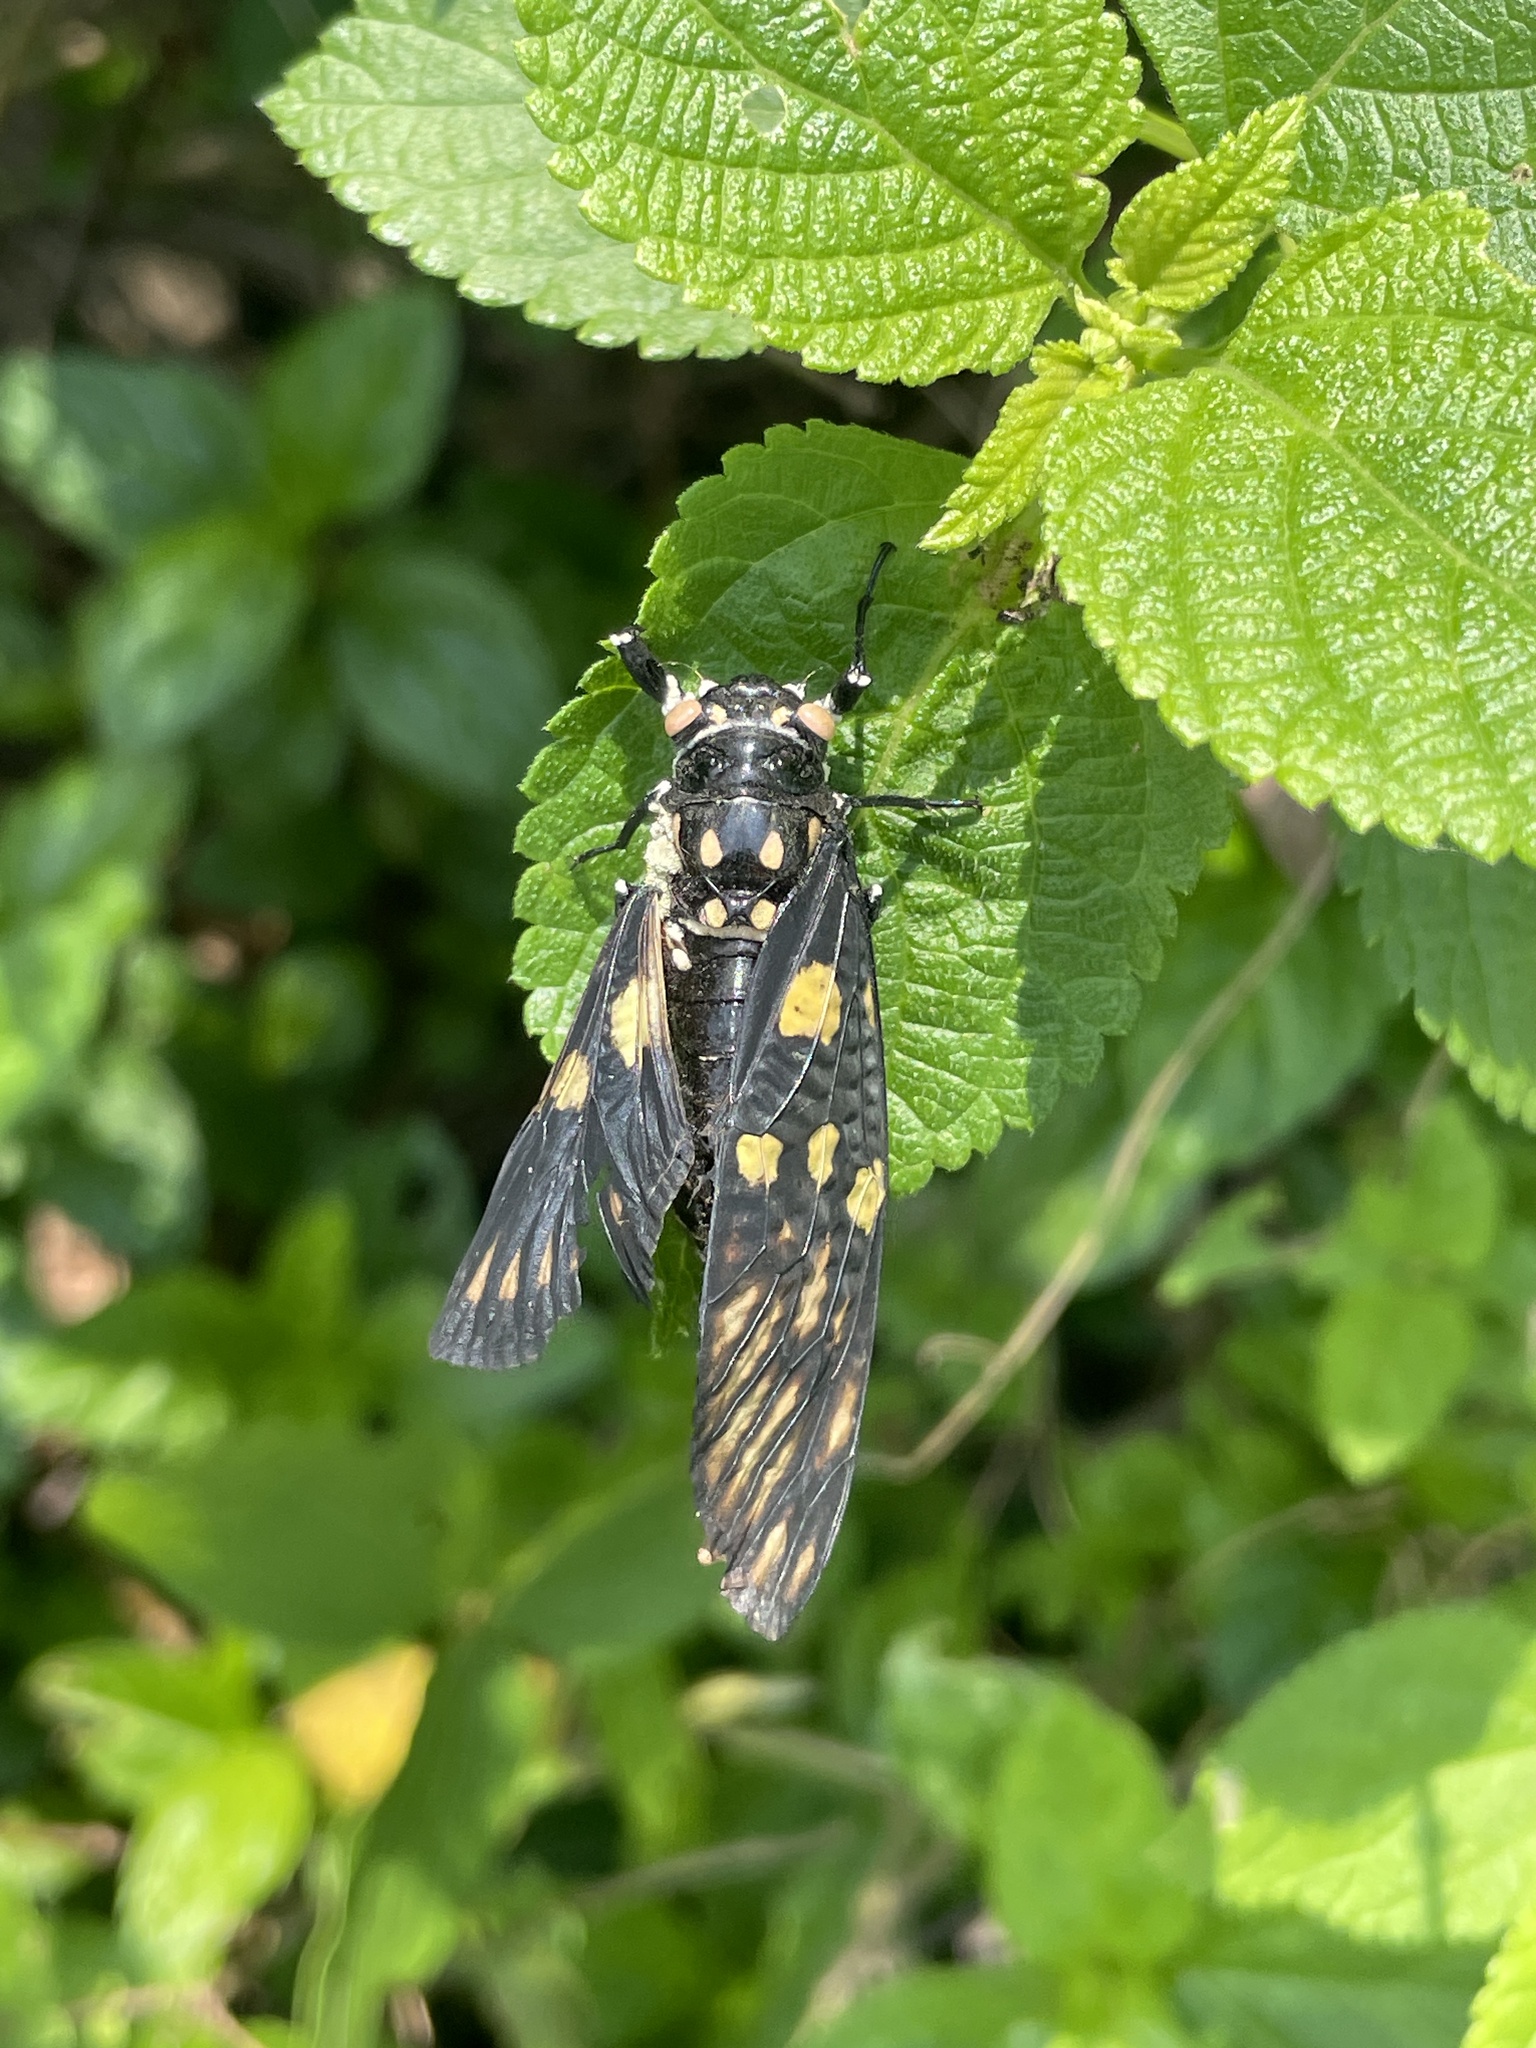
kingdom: Animalia
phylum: Arthropoda
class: Insecta
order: Hemiptera
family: Cicadidae
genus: Gaeana
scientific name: Gaeana maculata
